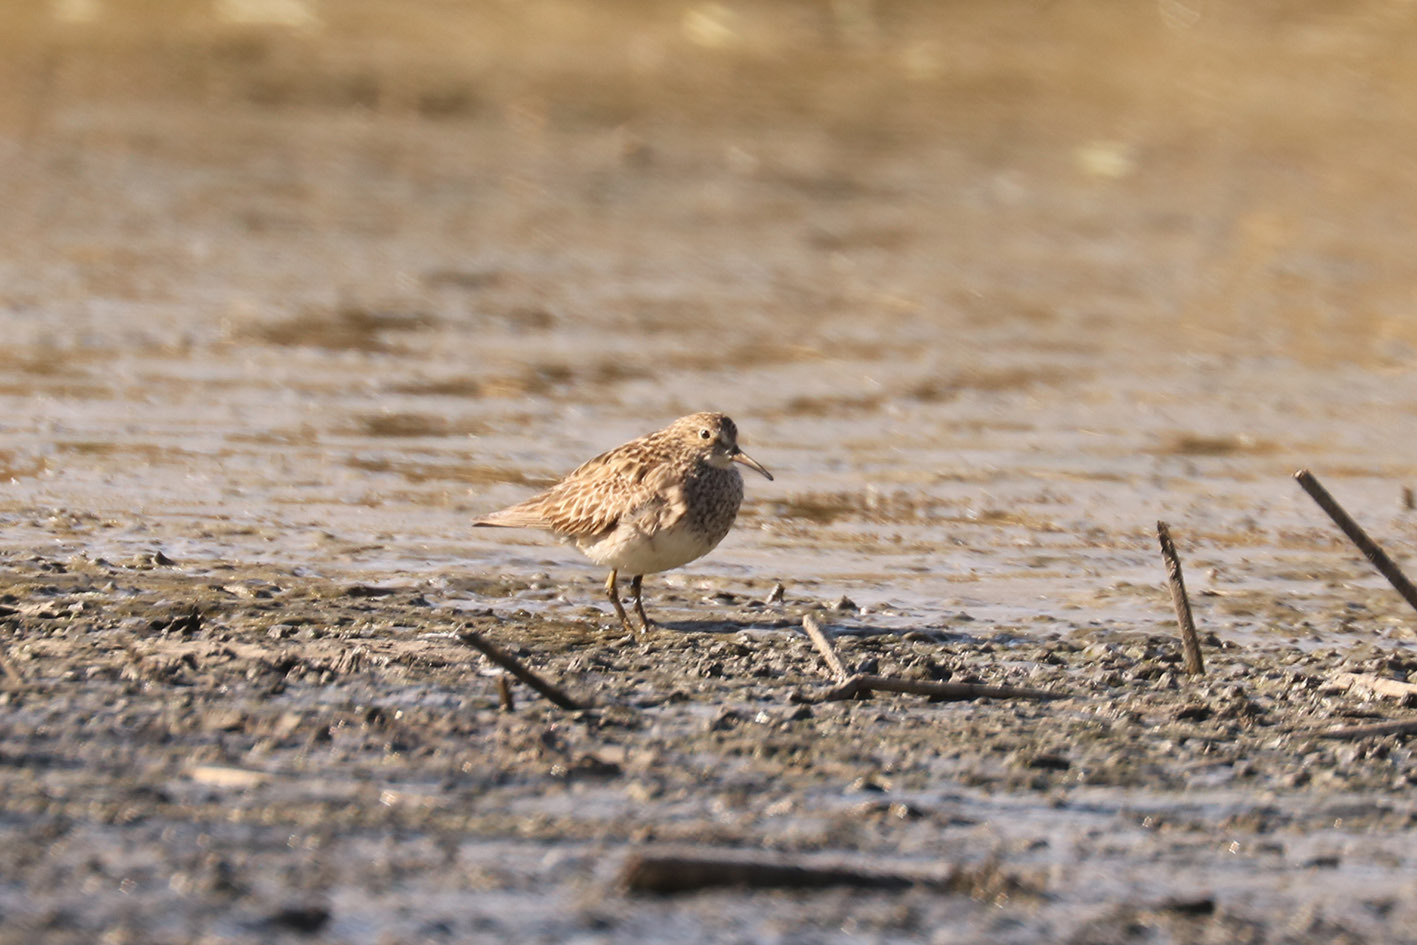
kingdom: Animalia
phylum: Chordata
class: Aves
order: Charadriiformes
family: Scolopacidae
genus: Calidris
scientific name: Calidris melanotos
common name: Pectoral sandpiper
